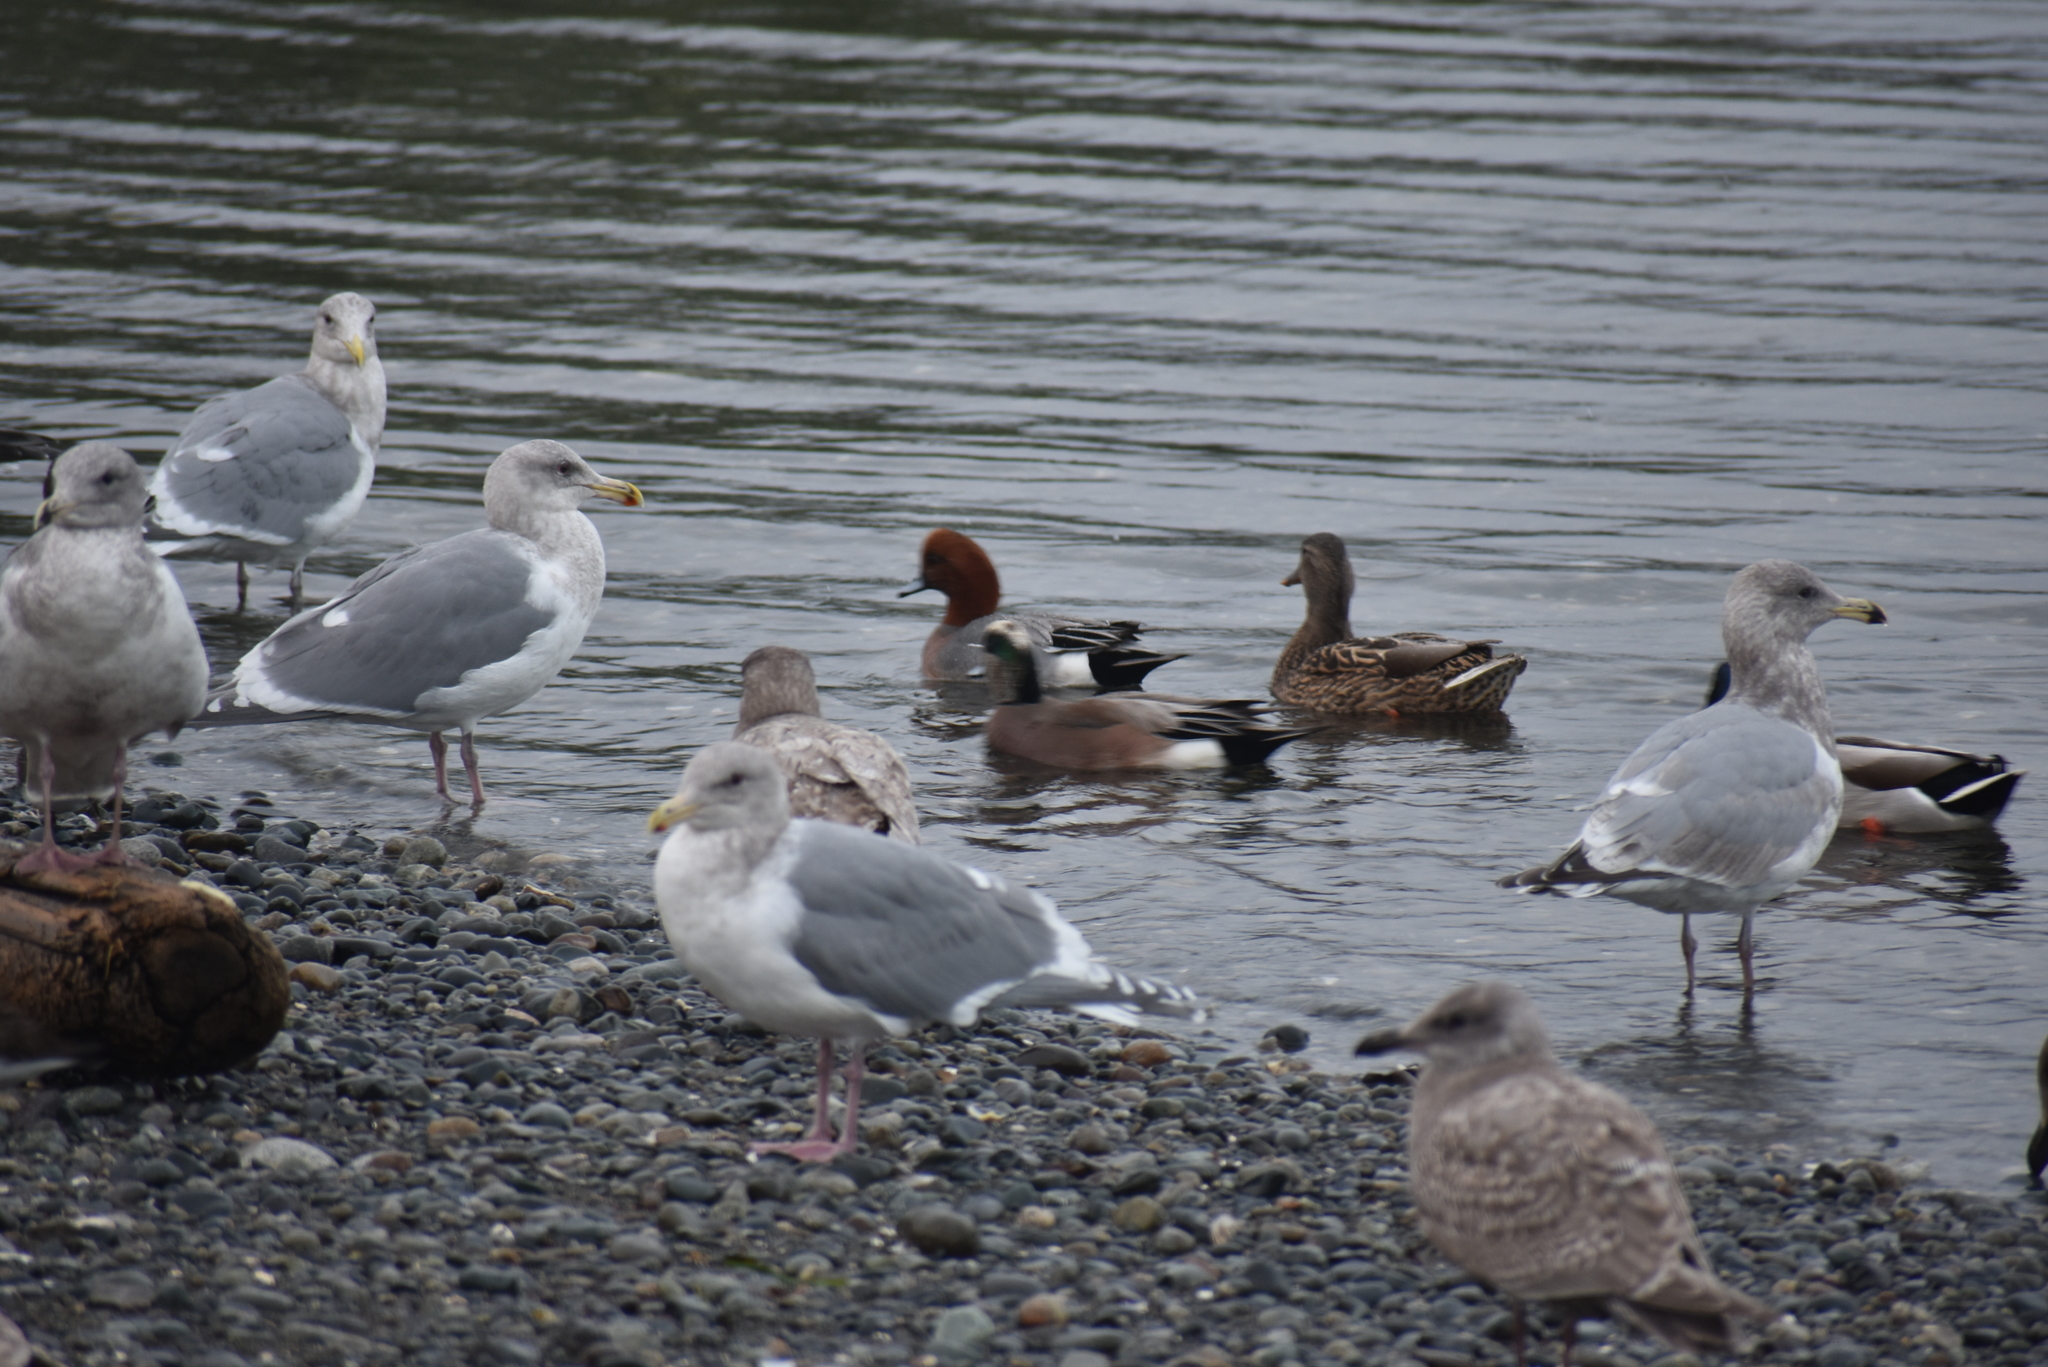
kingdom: Animalia
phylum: Chordata
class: Aves
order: Anseriformes
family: Anatidae
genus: Mareca
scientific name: Mareca americana
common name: American wigeon
